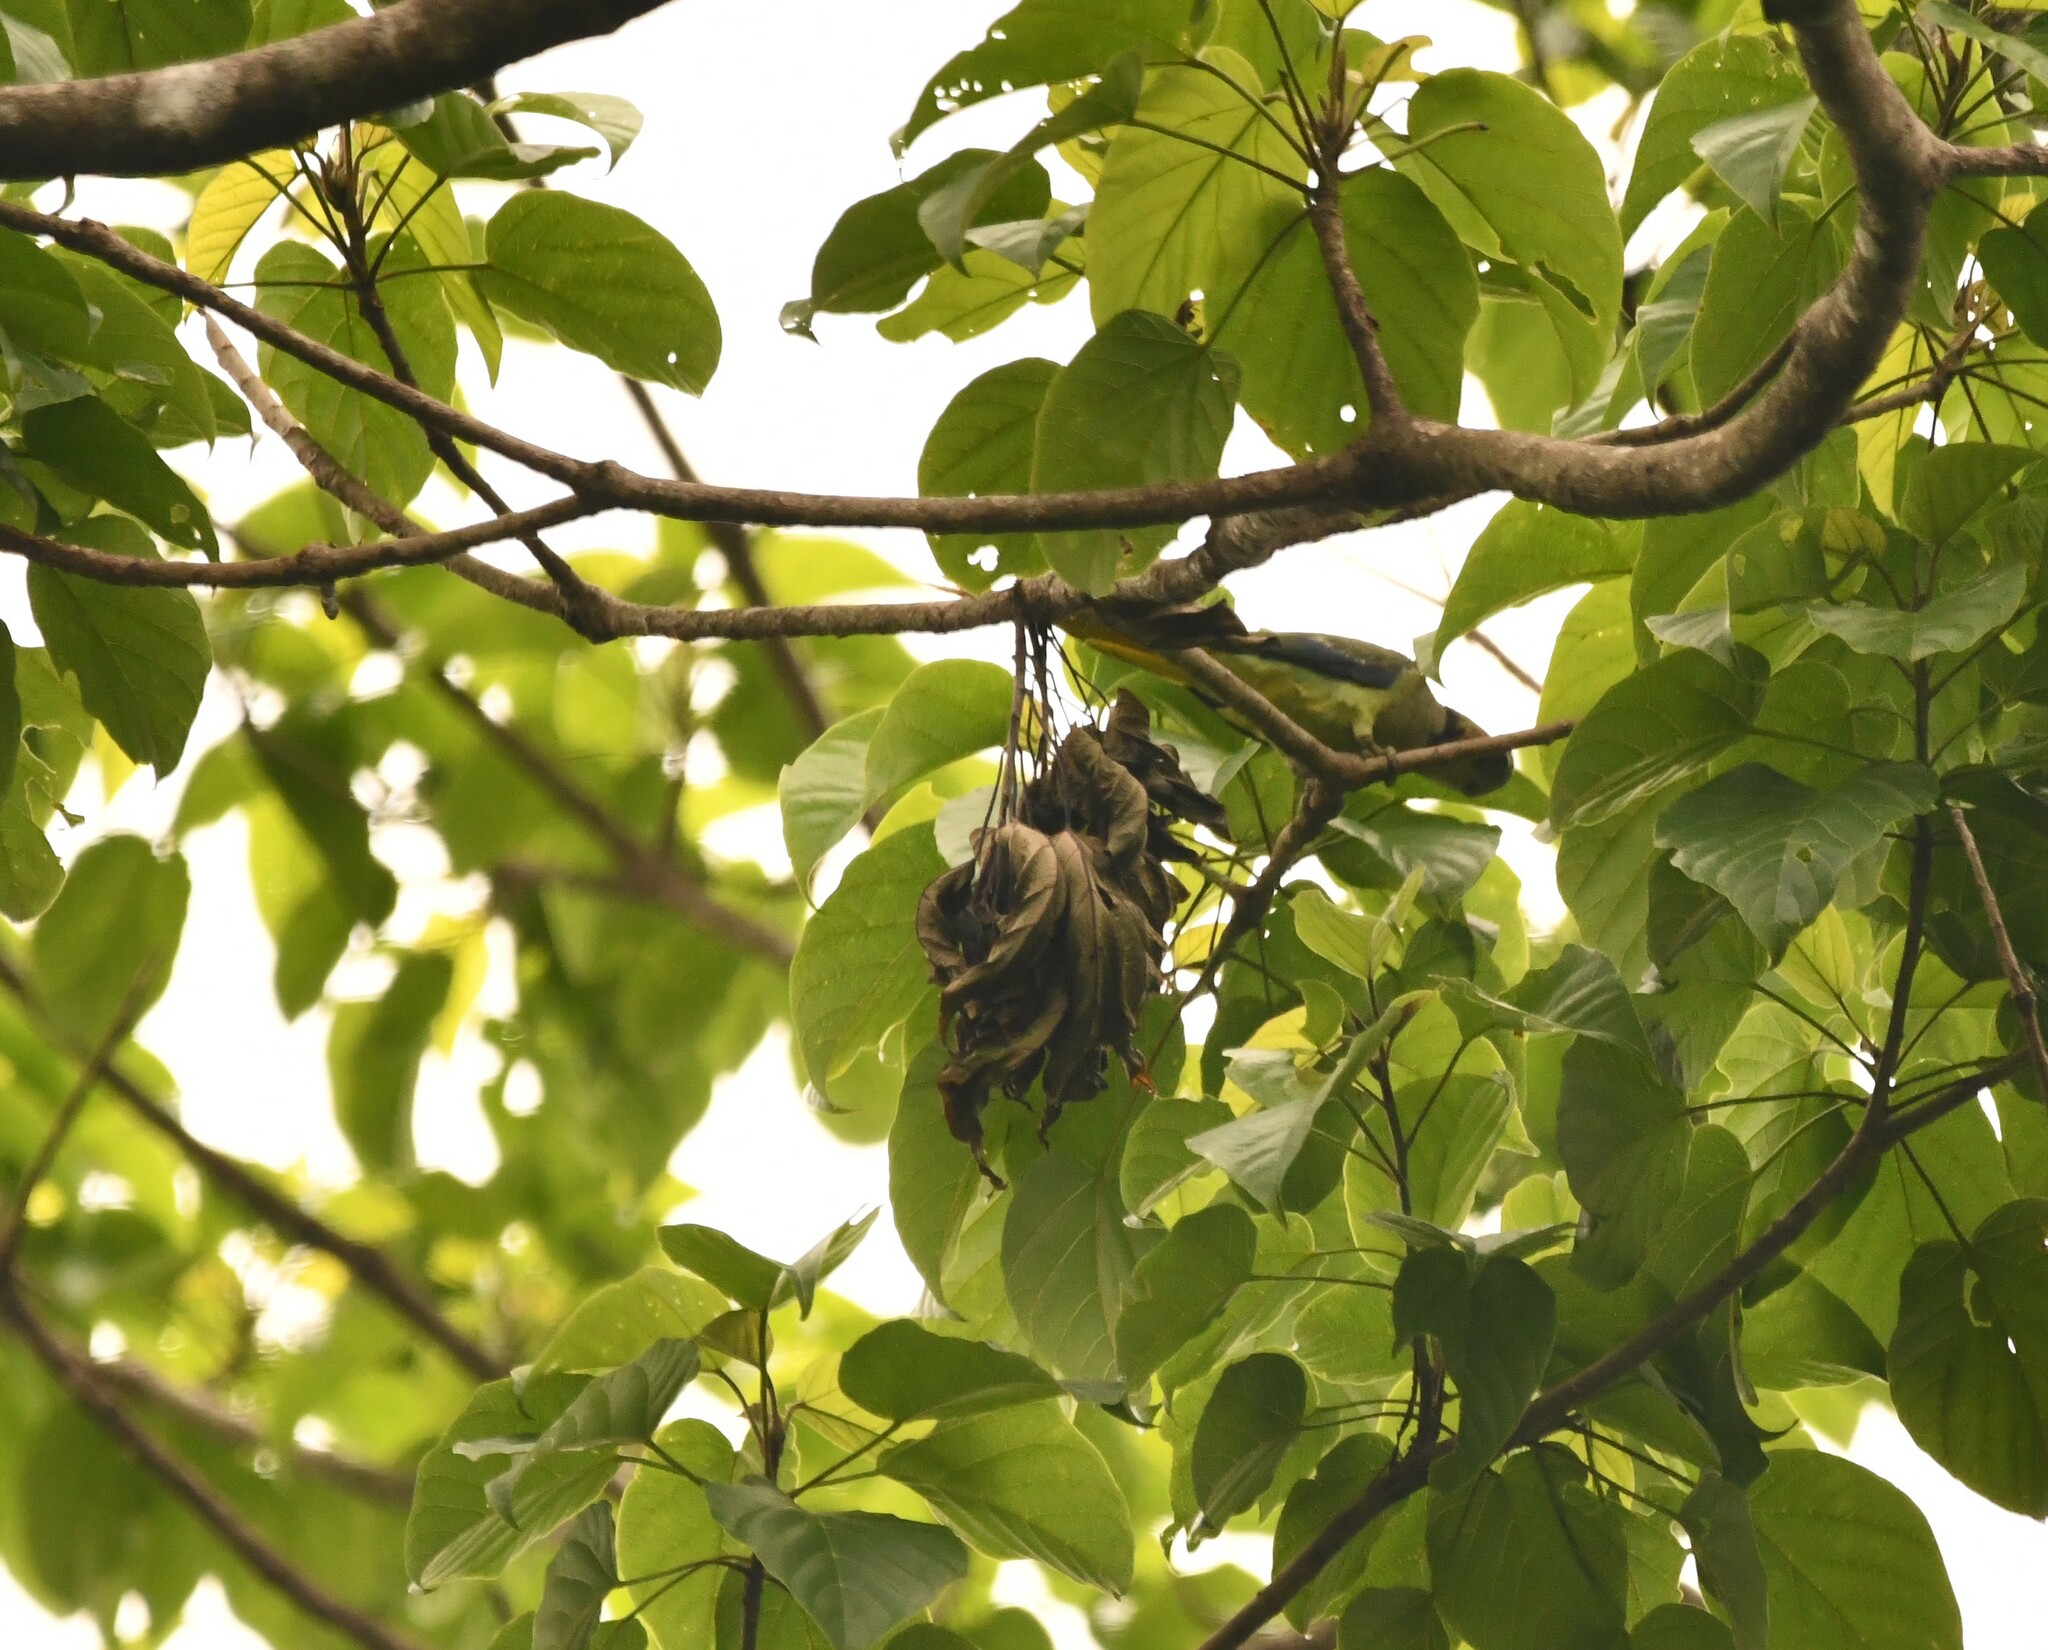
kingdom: Animalia
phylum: Chordata
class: Aves
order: Psittaciformes
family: Psittacidae
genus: Psittacula
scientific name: Psittacula columboides
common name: Blue-winged parakeet
